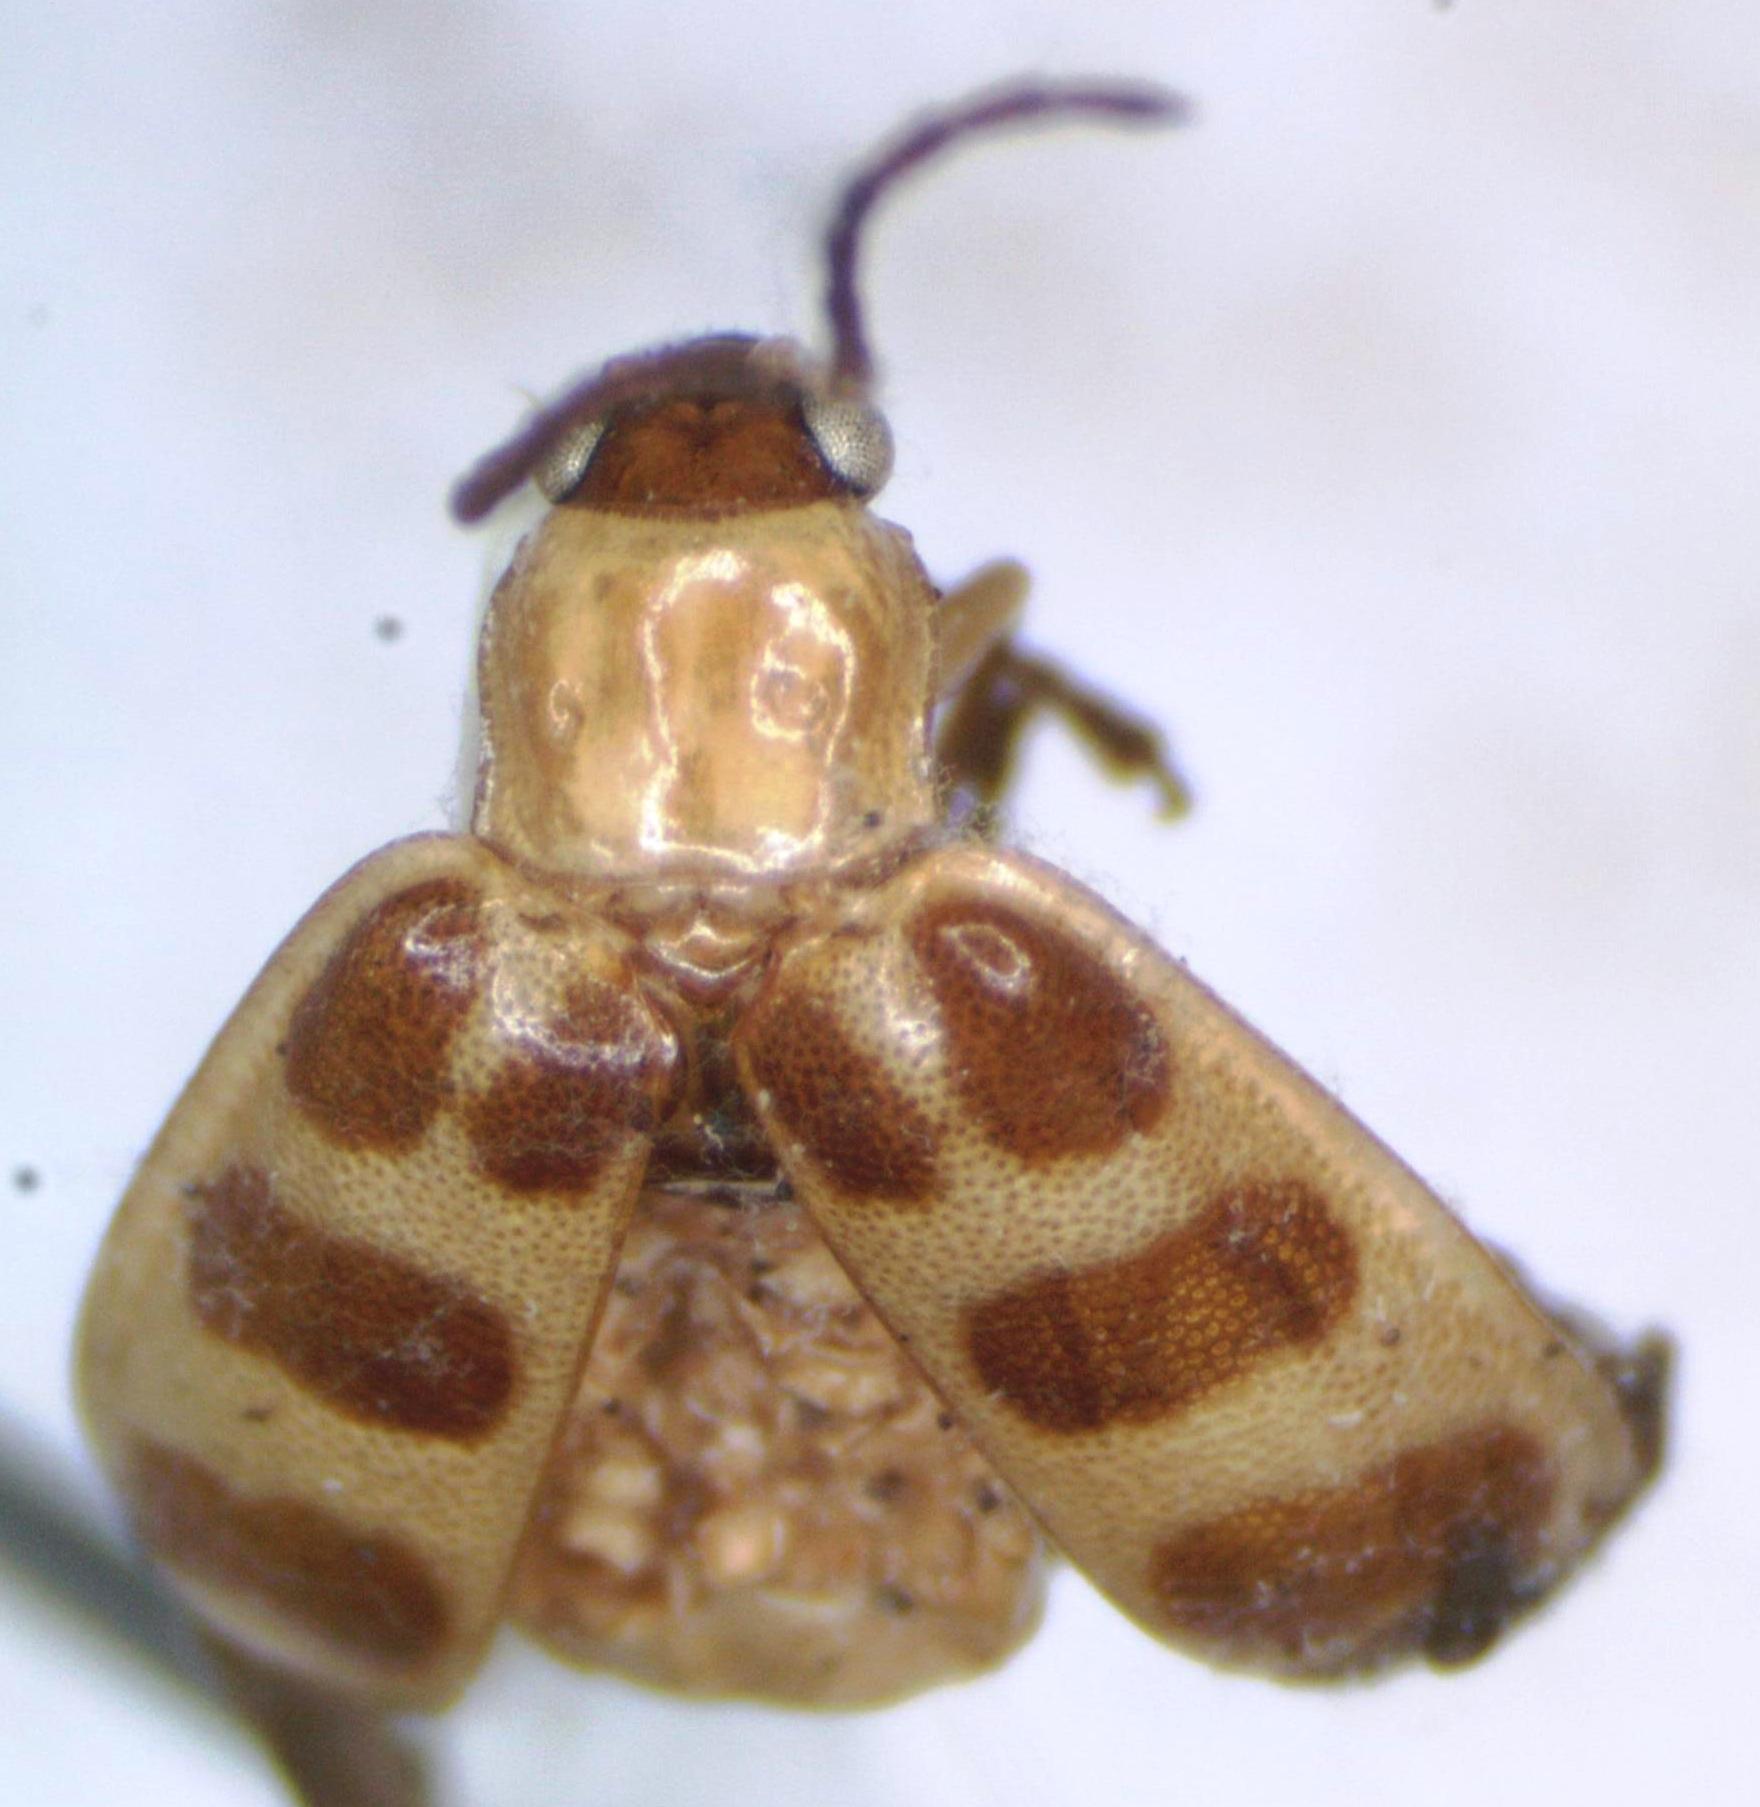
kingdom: Animalia
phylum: Arthropoda
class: Insecta
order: Coleoptera
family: Chrysomelidae
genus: Diabrotica
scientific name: Diabrotica
